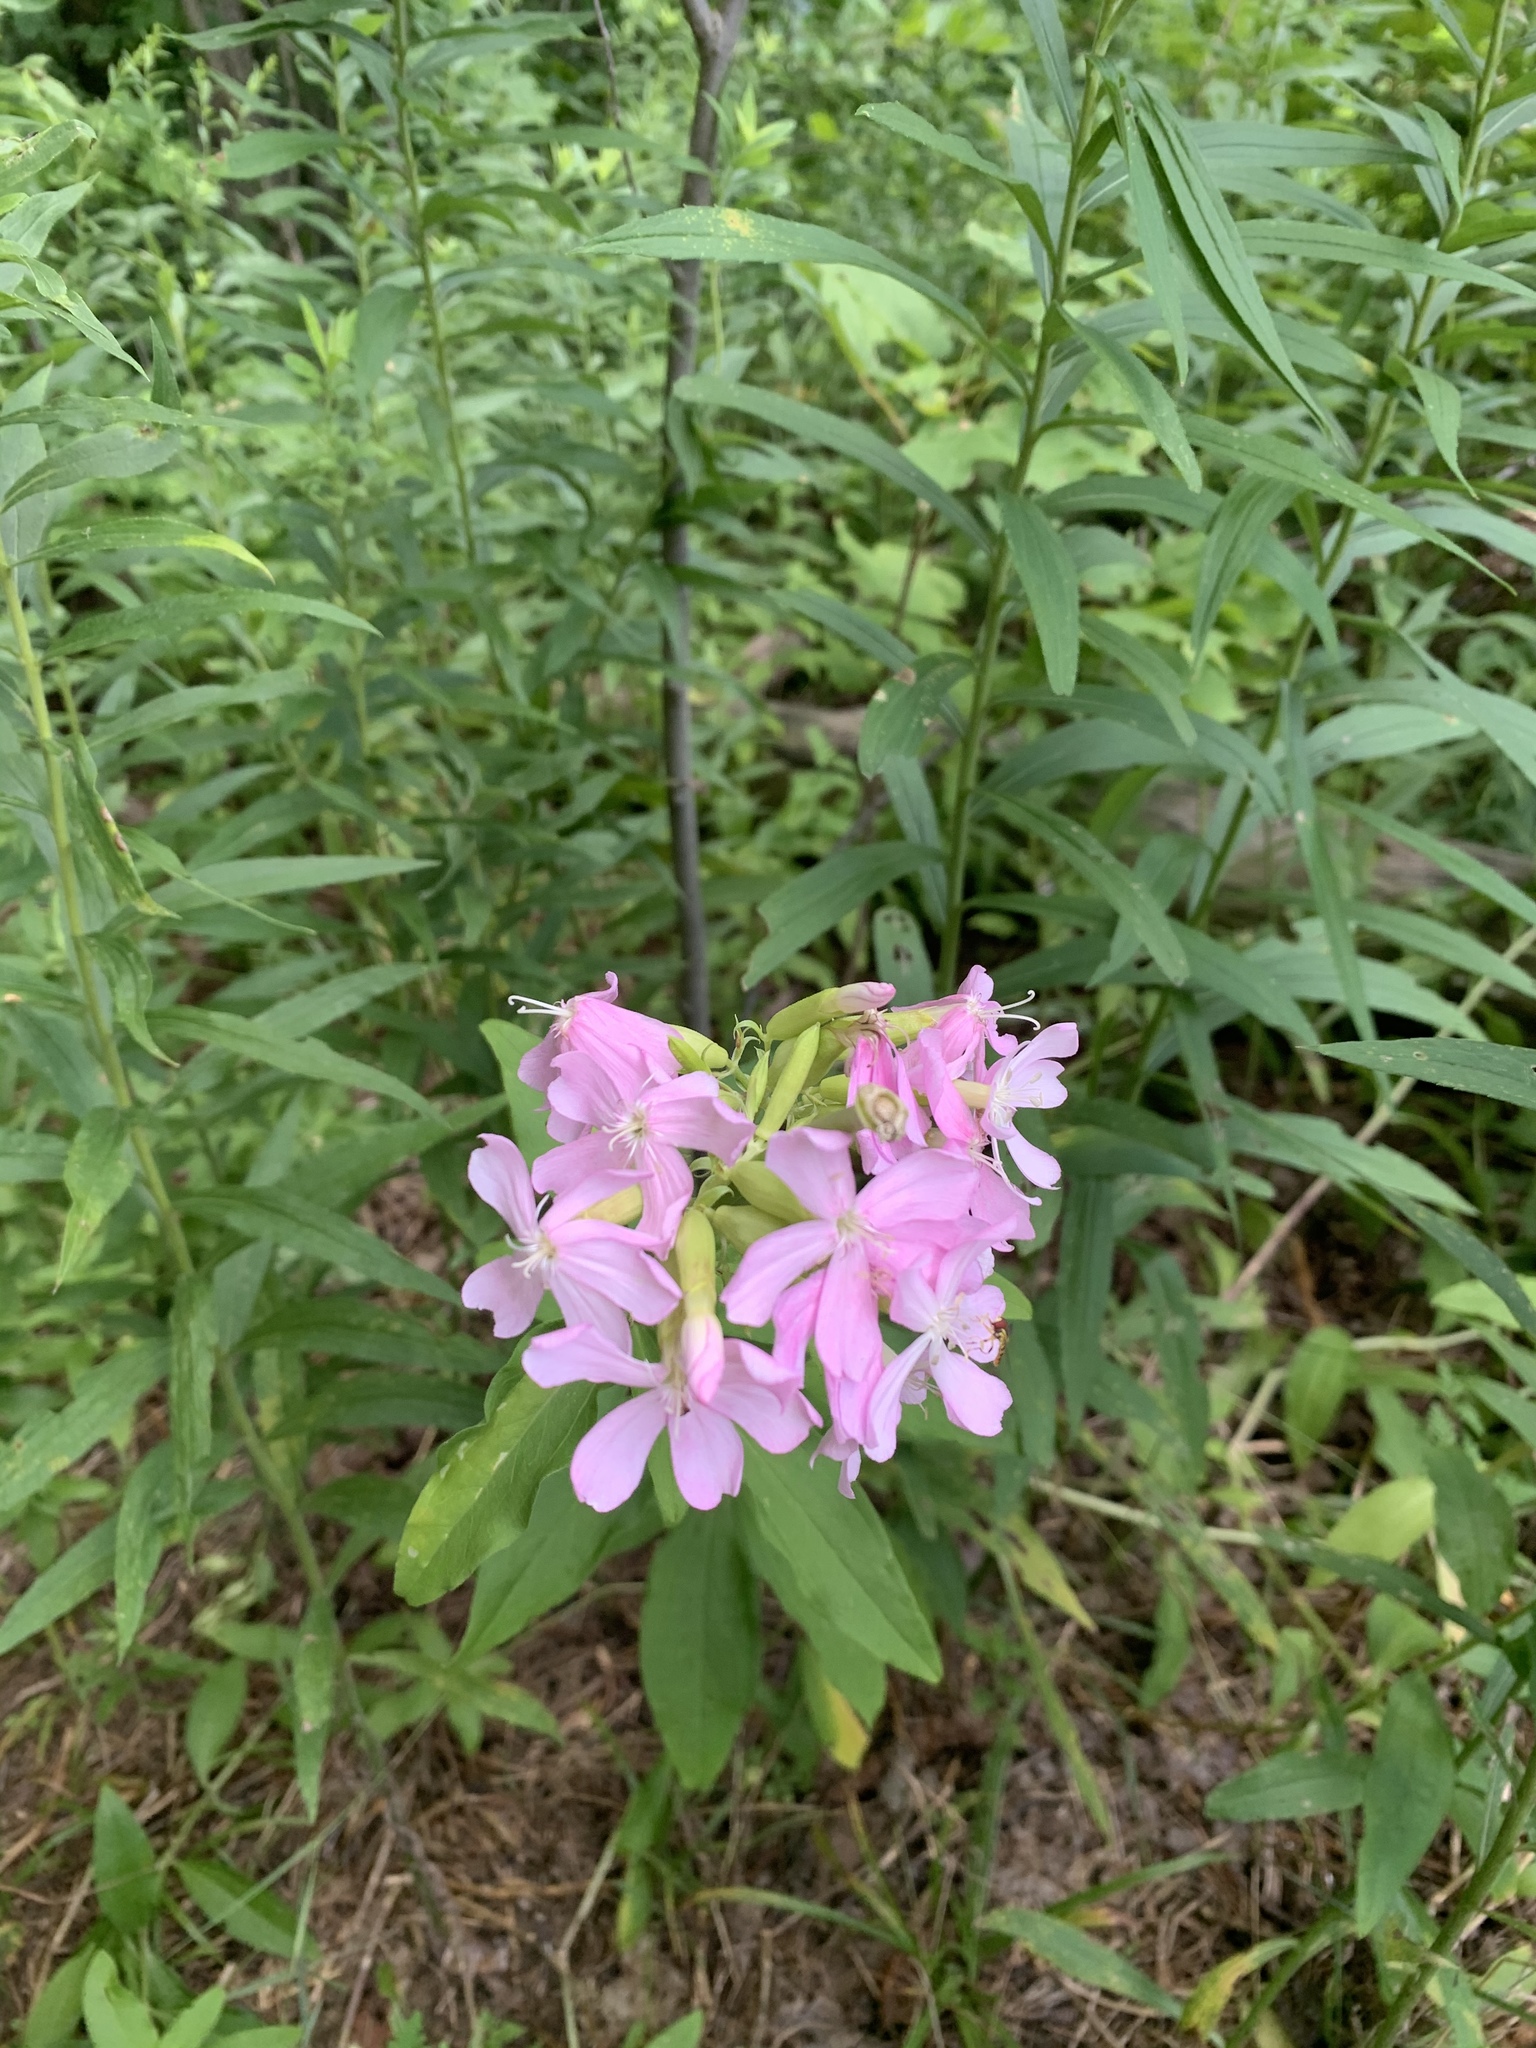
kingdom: Plantae
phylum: Tracheophyta
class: Magnoliopsida
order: Caryophyllales
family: Caryophyllaceae
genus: Saponaria
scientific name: Saponaria officinalis
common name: Soapwort
